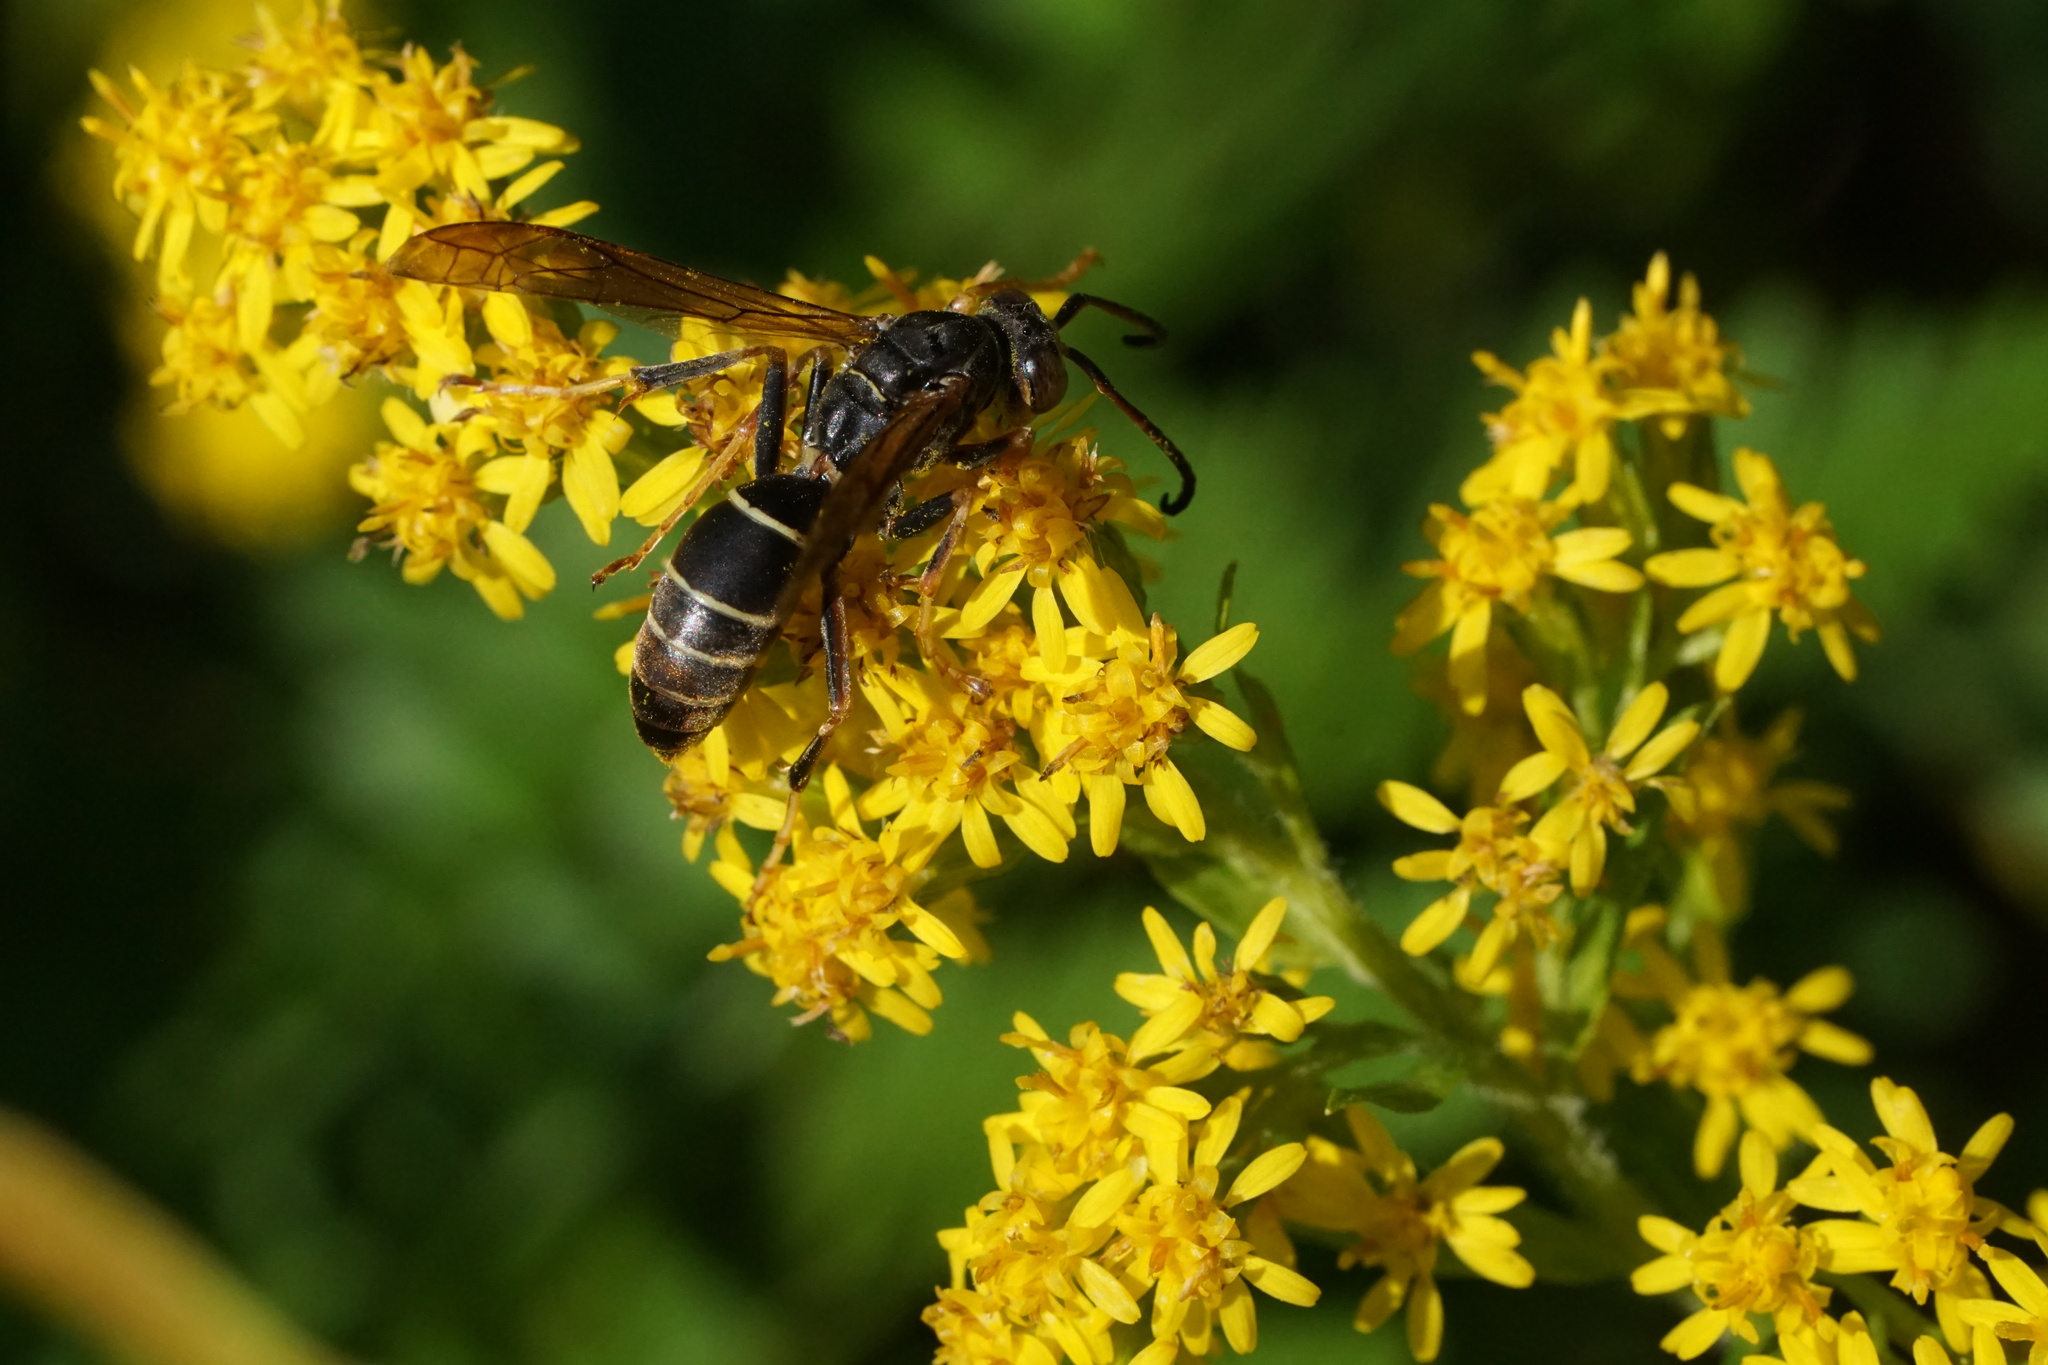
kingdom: Animalia
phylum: Arthropoda
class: Insecta
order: Hymenoptera
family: Eumenidae
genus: Polistes
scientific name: Polistes fuscatus
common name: Dark paper wasp
